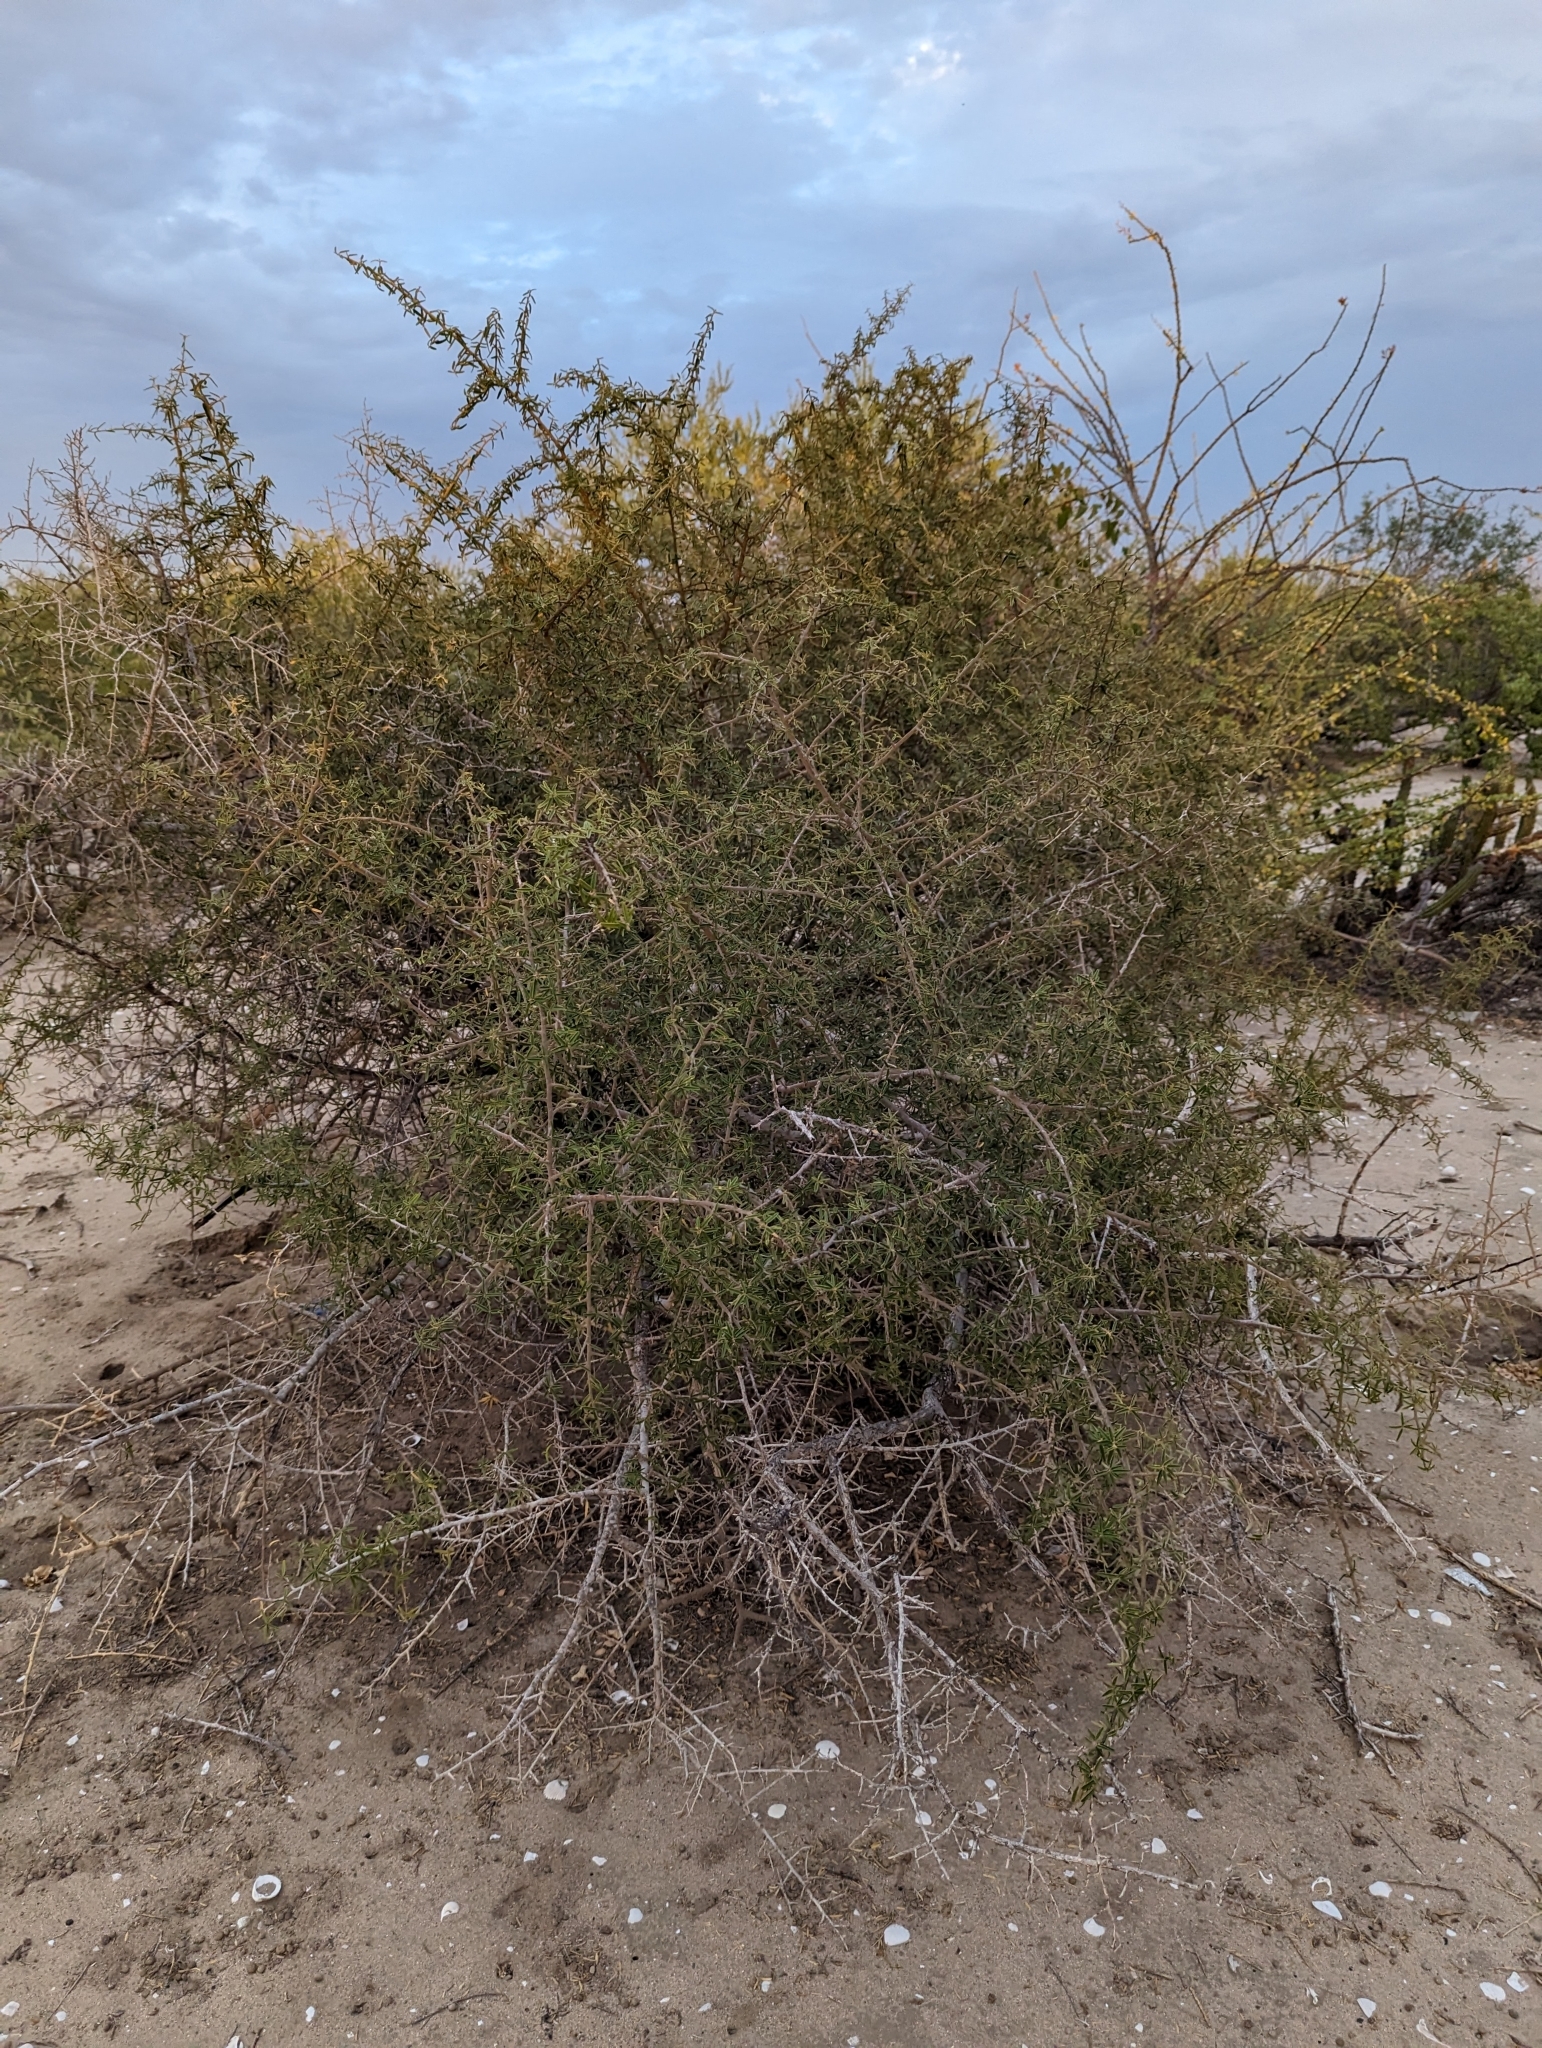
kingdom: Plantae
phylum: Tracheophyta
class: Magnoliopsida
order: Brassicales
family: Capparaceae
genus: Atamisquea
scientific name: Atamisquea emarginata
